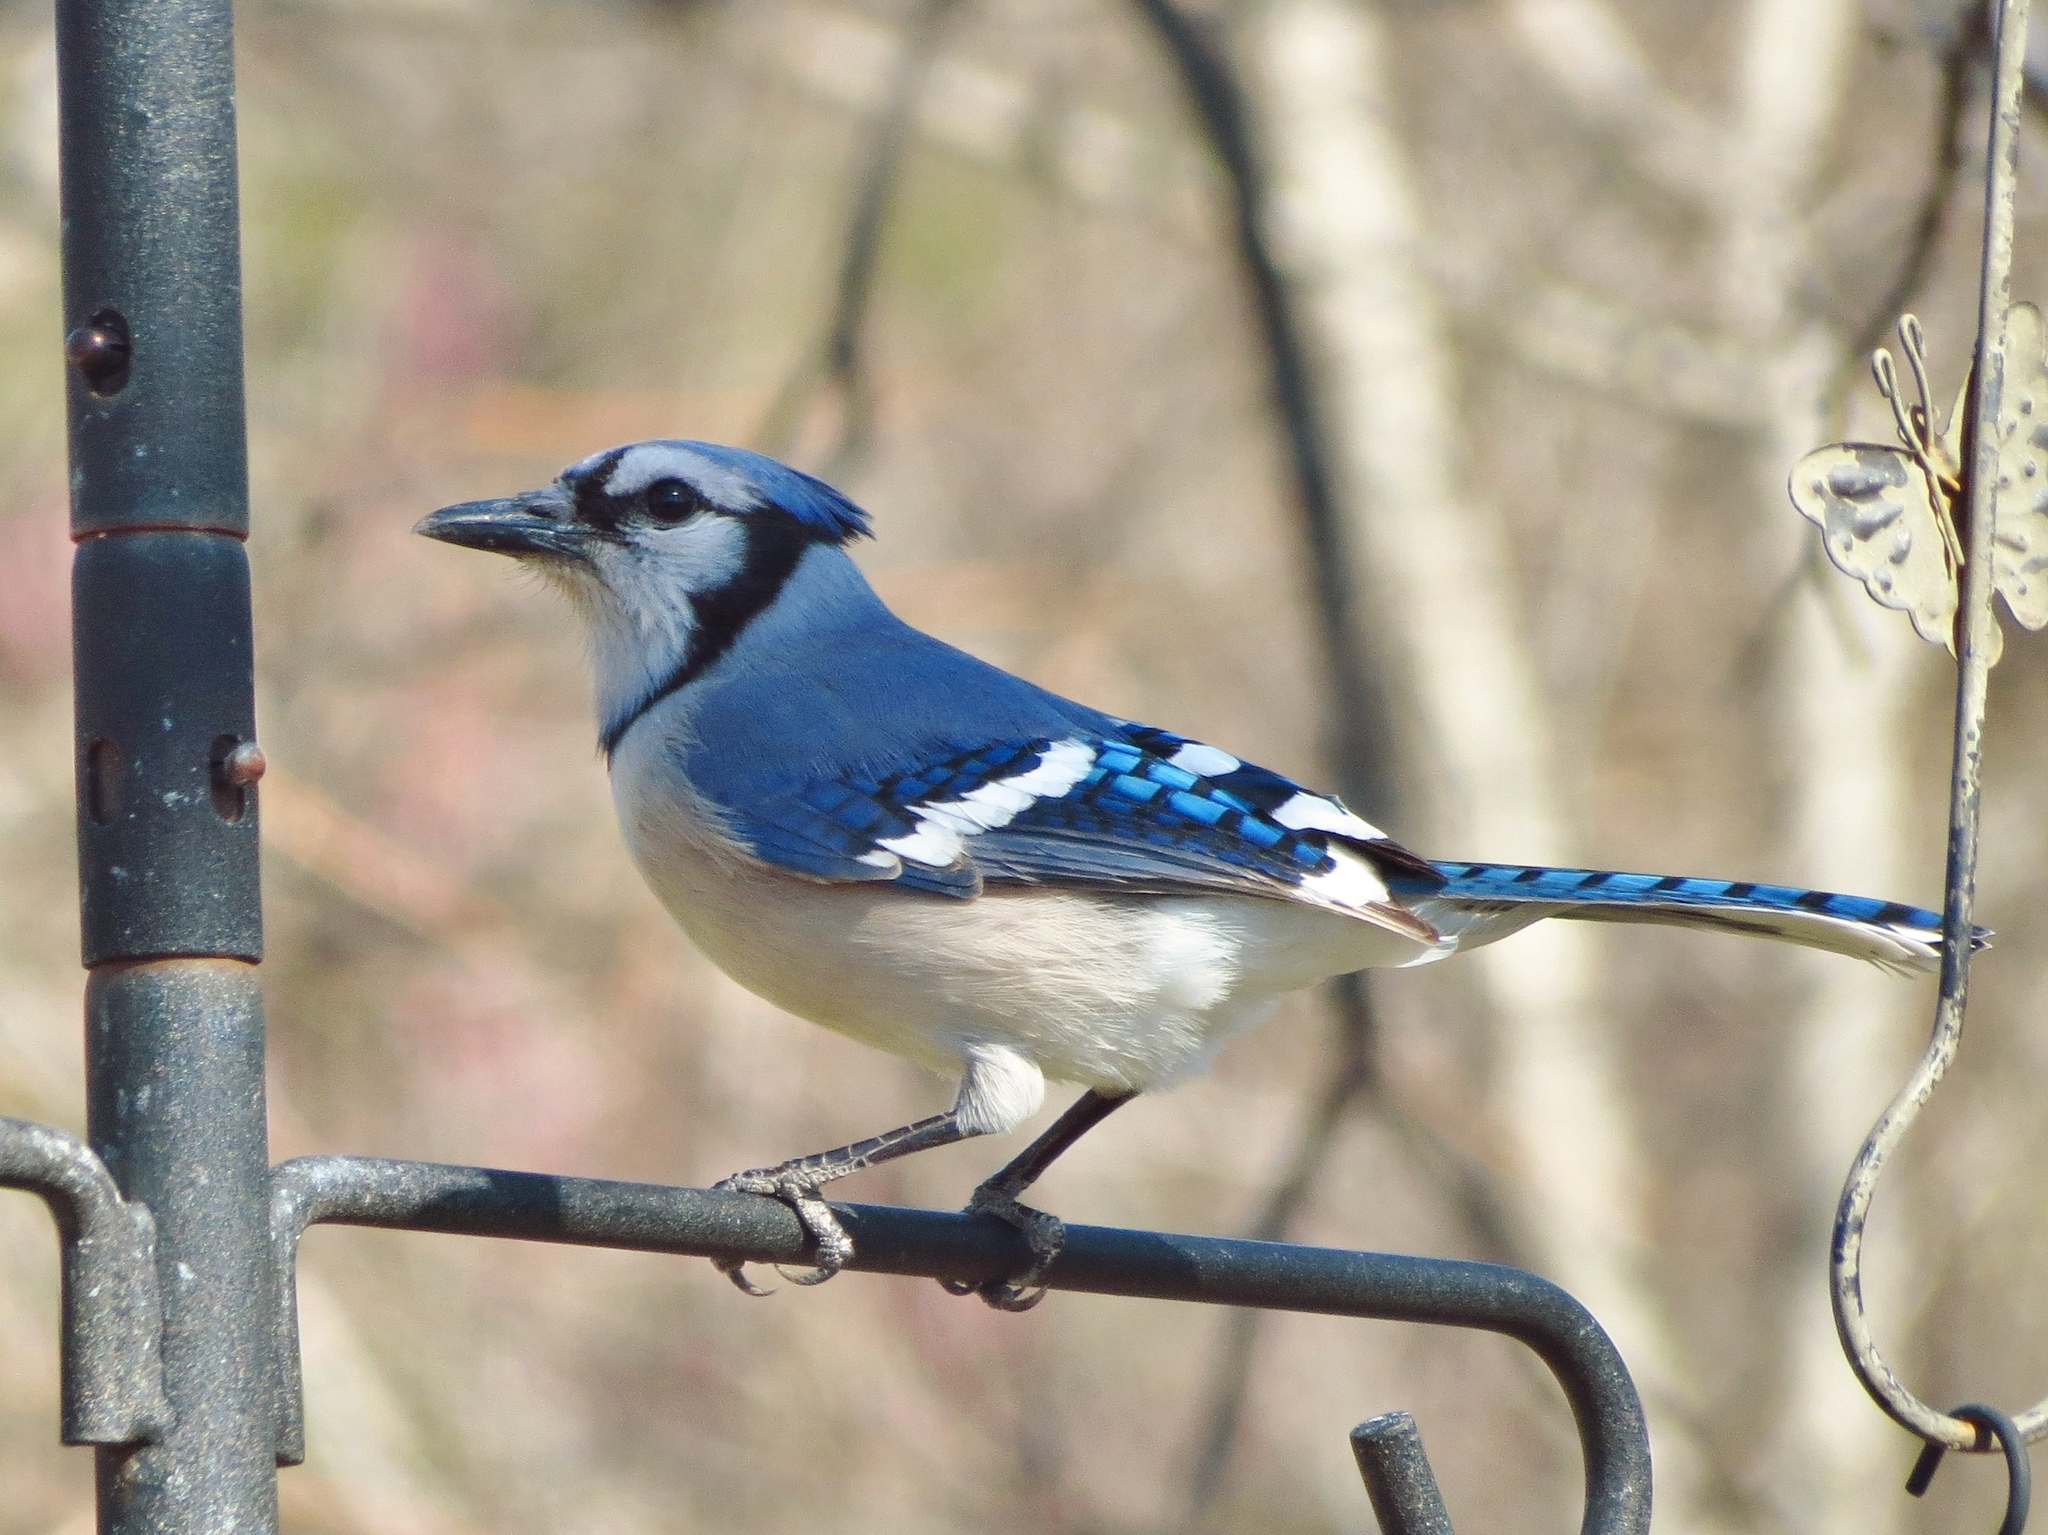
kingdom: Animalia
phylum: Chordata
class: Aves
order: Passeriformes
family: Corvidae
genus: Cyanocitta
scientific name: Cyanocitta cristata
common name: Blue jay
